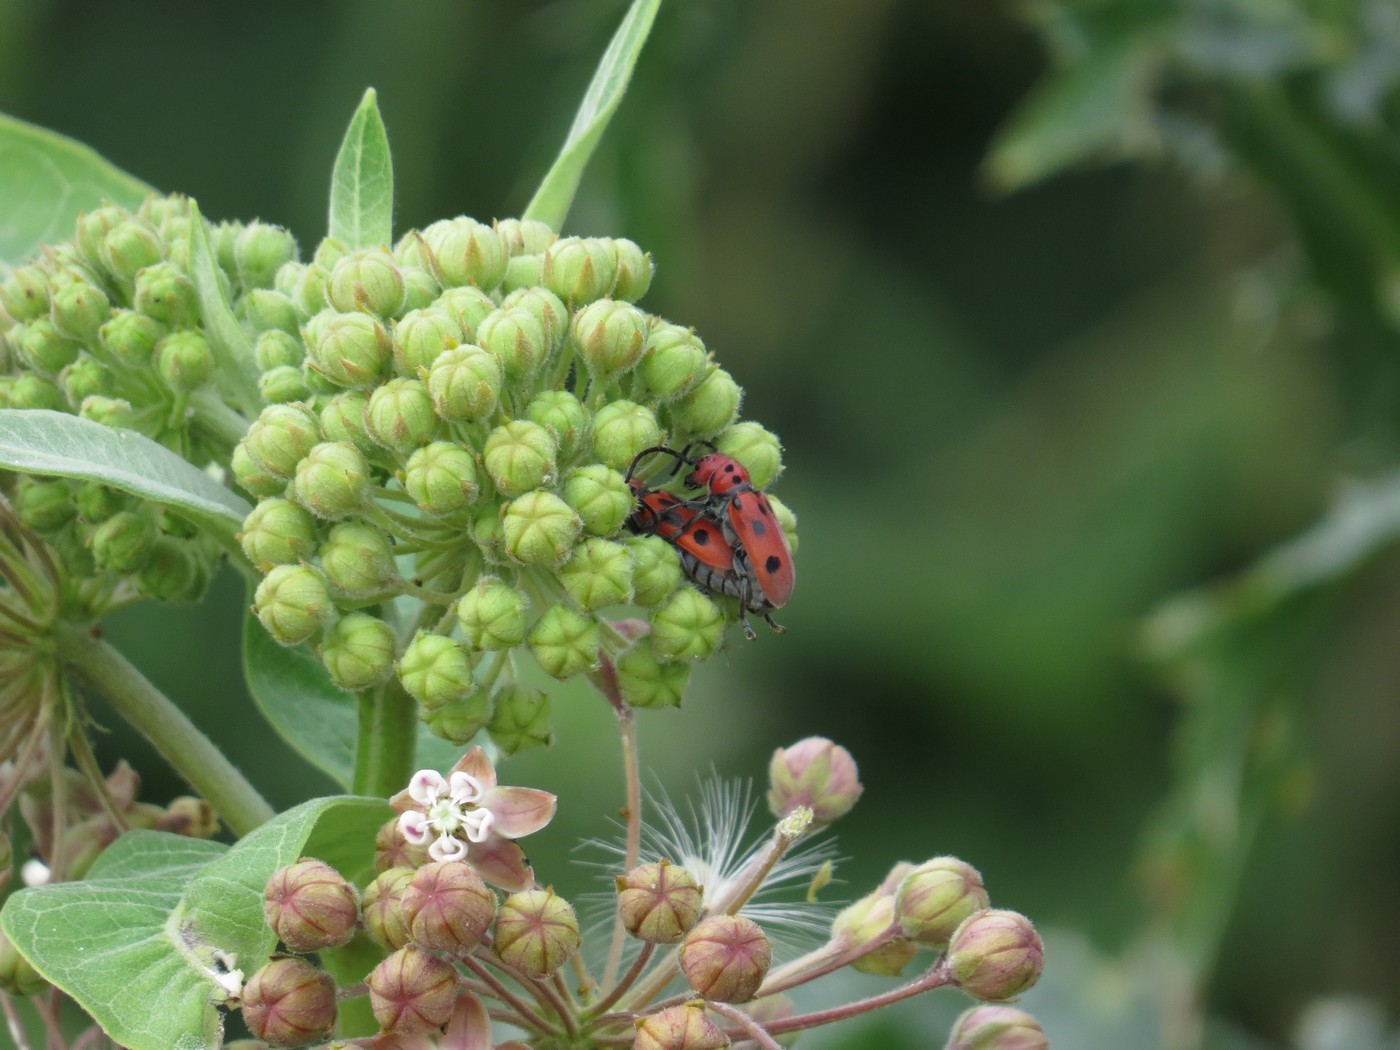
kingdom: Animalia
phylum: Arthropoda
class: Insecta
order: Coleoptera
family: Cerambycidae
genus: Tetraopes
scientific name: Tetraopes tetrophthalmus
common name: Red milkweed beetle
